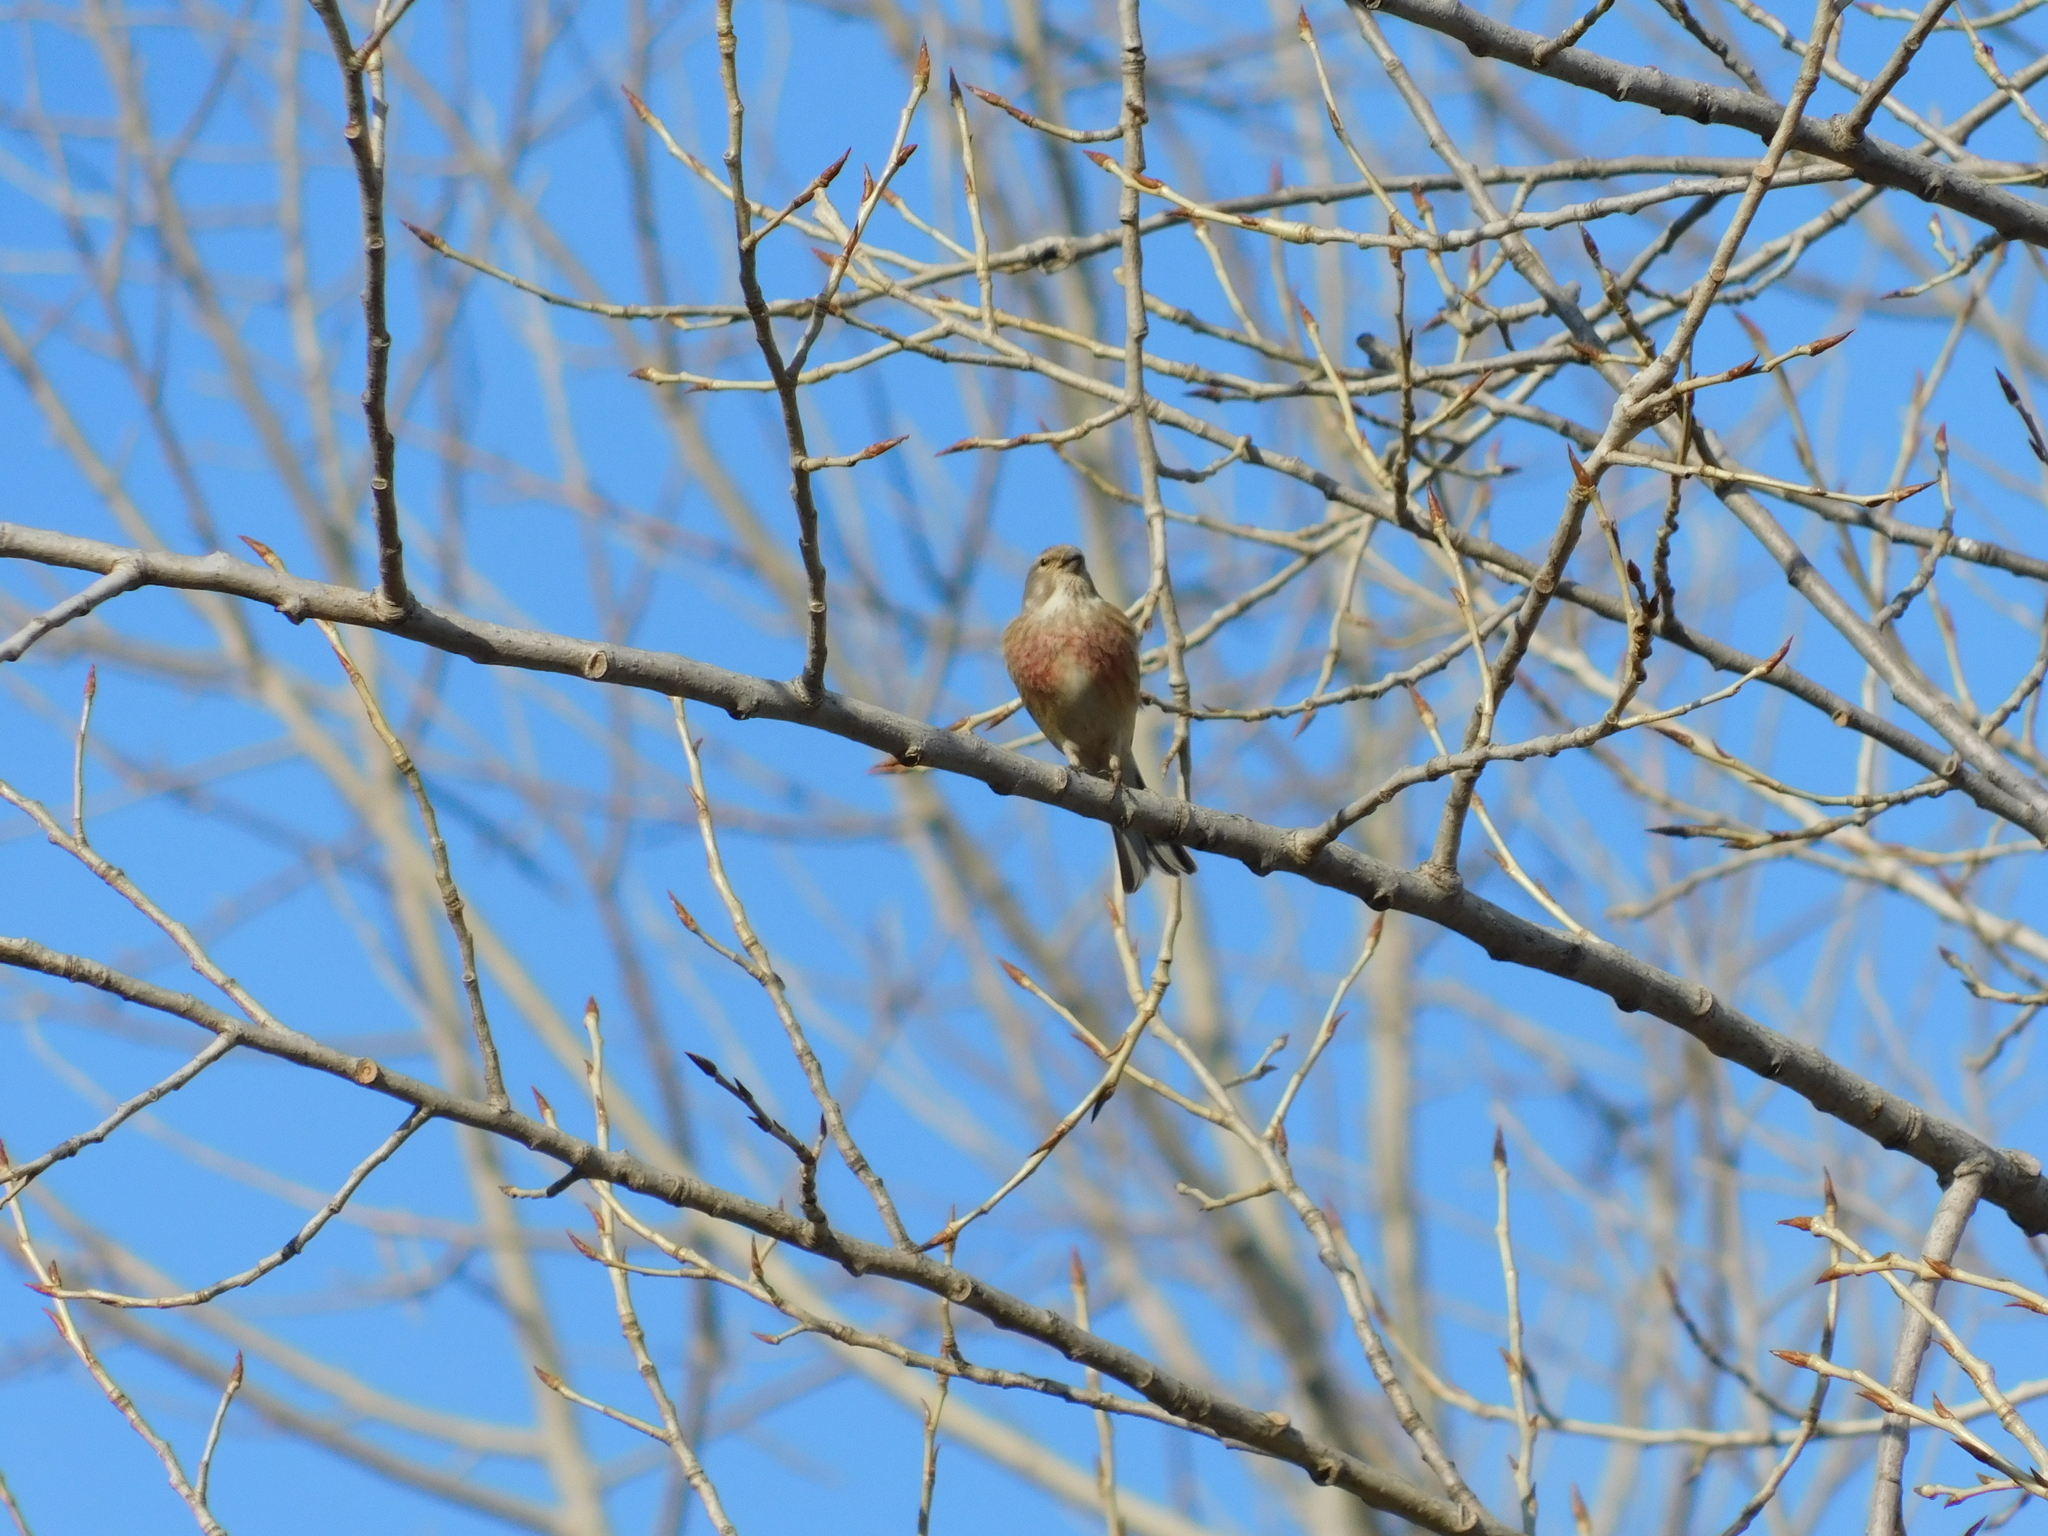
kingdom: Animalia
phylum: Chordata
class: Aves
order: Passeriformes
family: Fringillidae
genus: Linaria
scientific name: Linaria cannabina
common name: Common linnet
